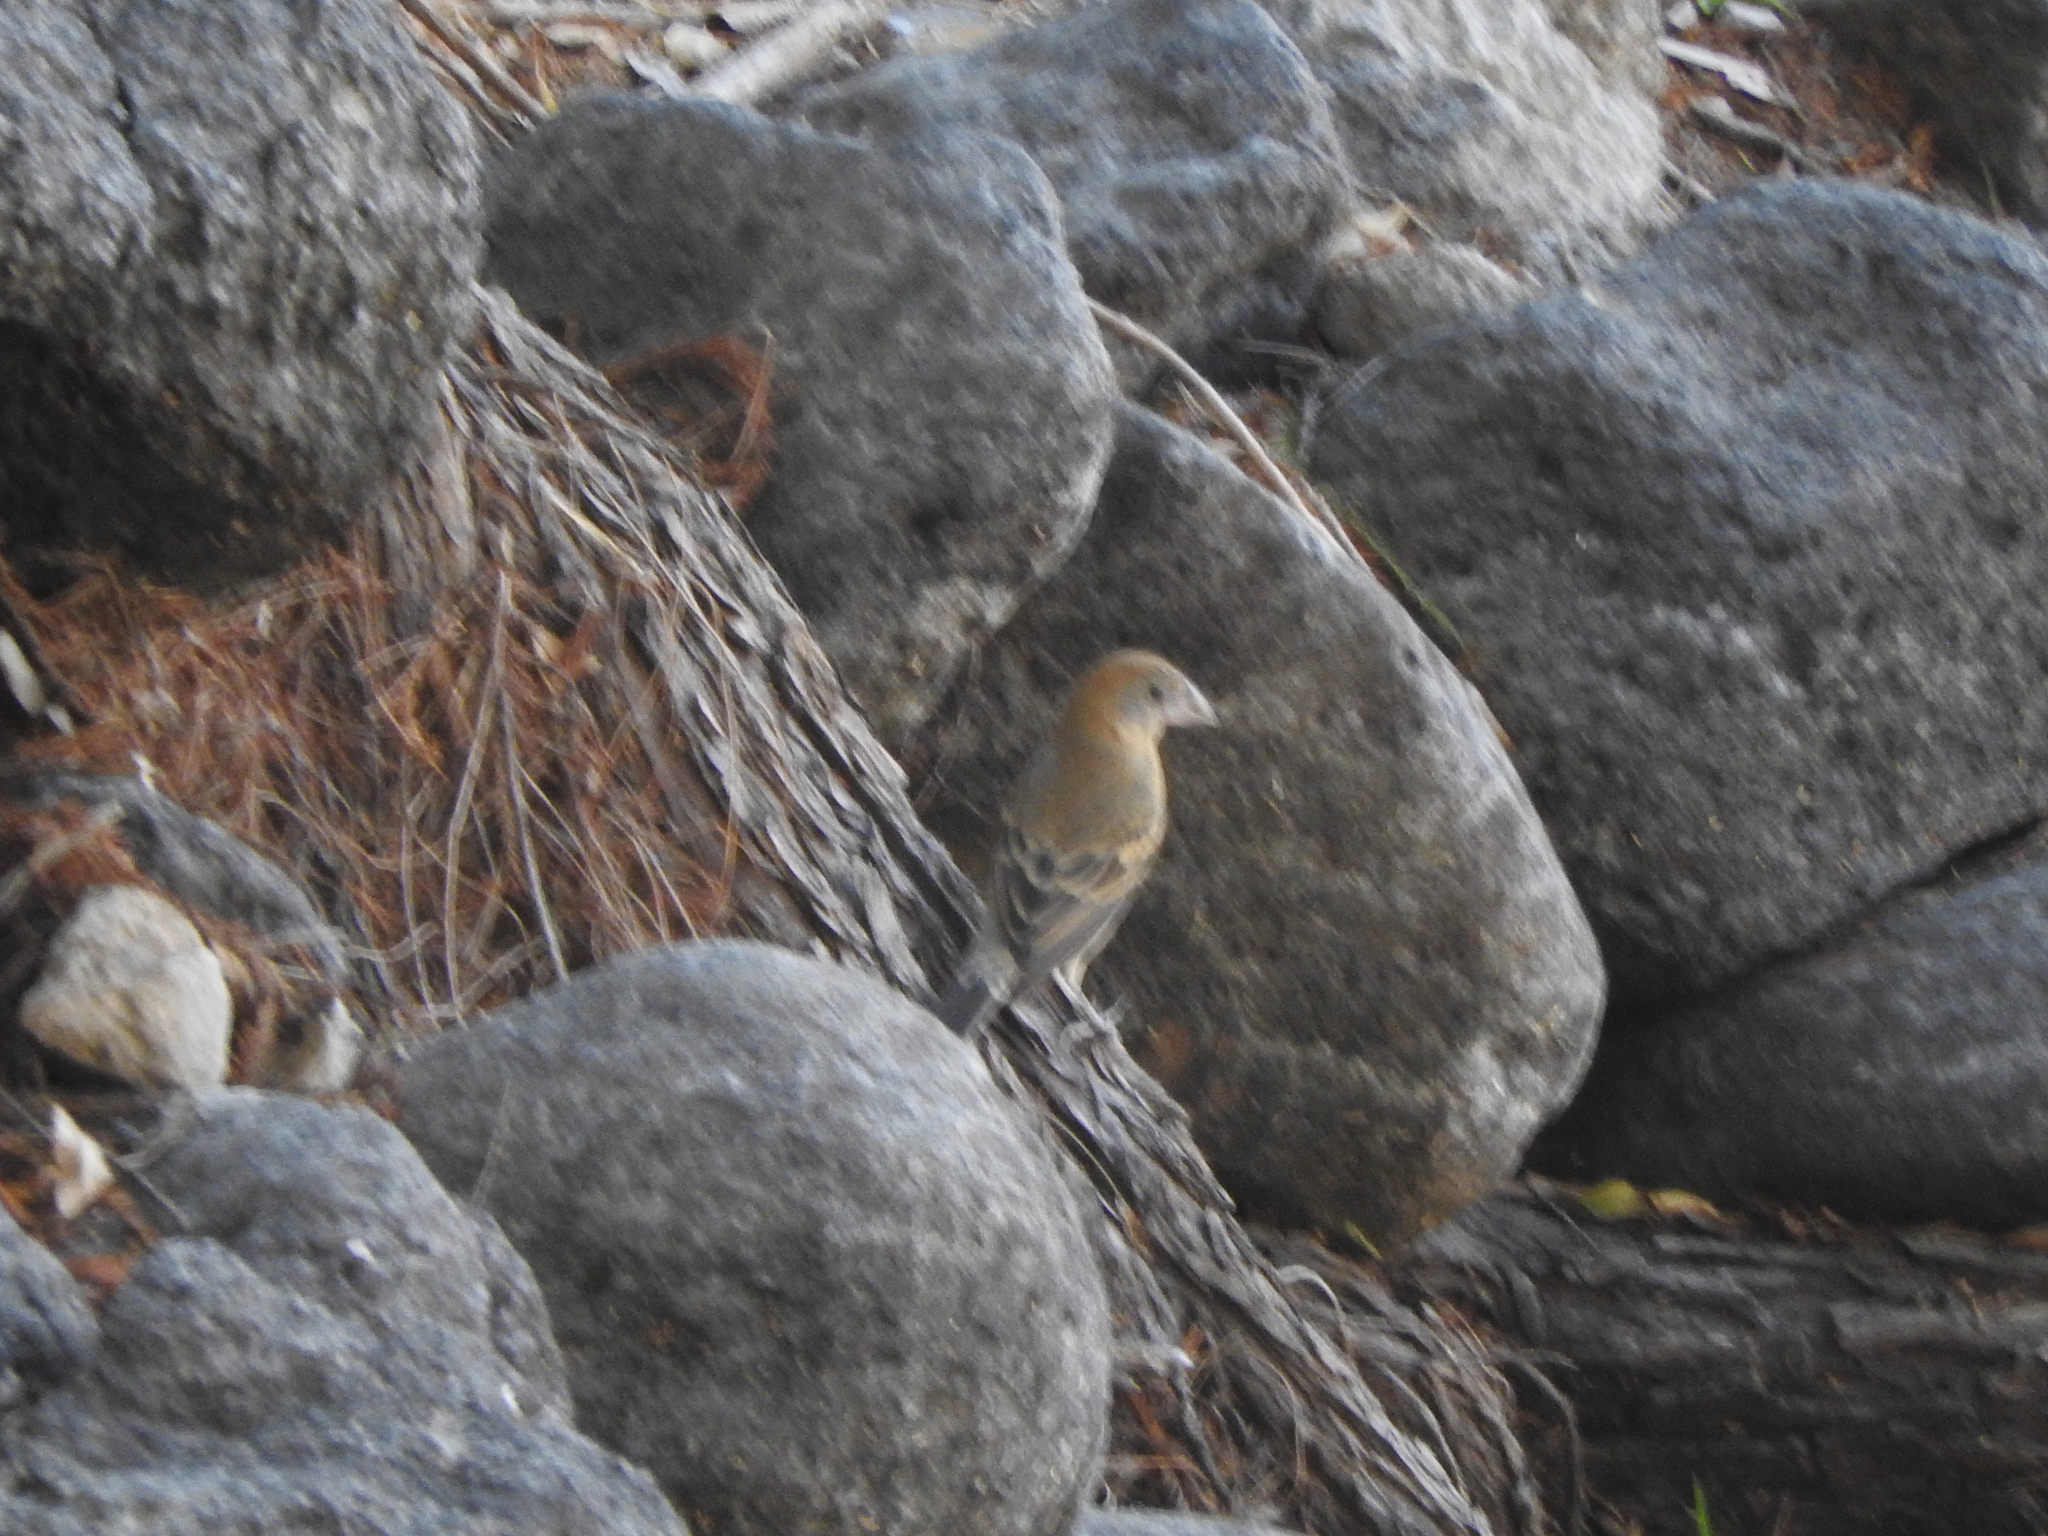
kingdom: Animalia
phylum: Chordata
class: Aves
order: Passeriformes
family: Cardinalidae
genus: Passerina
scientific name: Passerina caerulea
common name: Blue grosbeak
